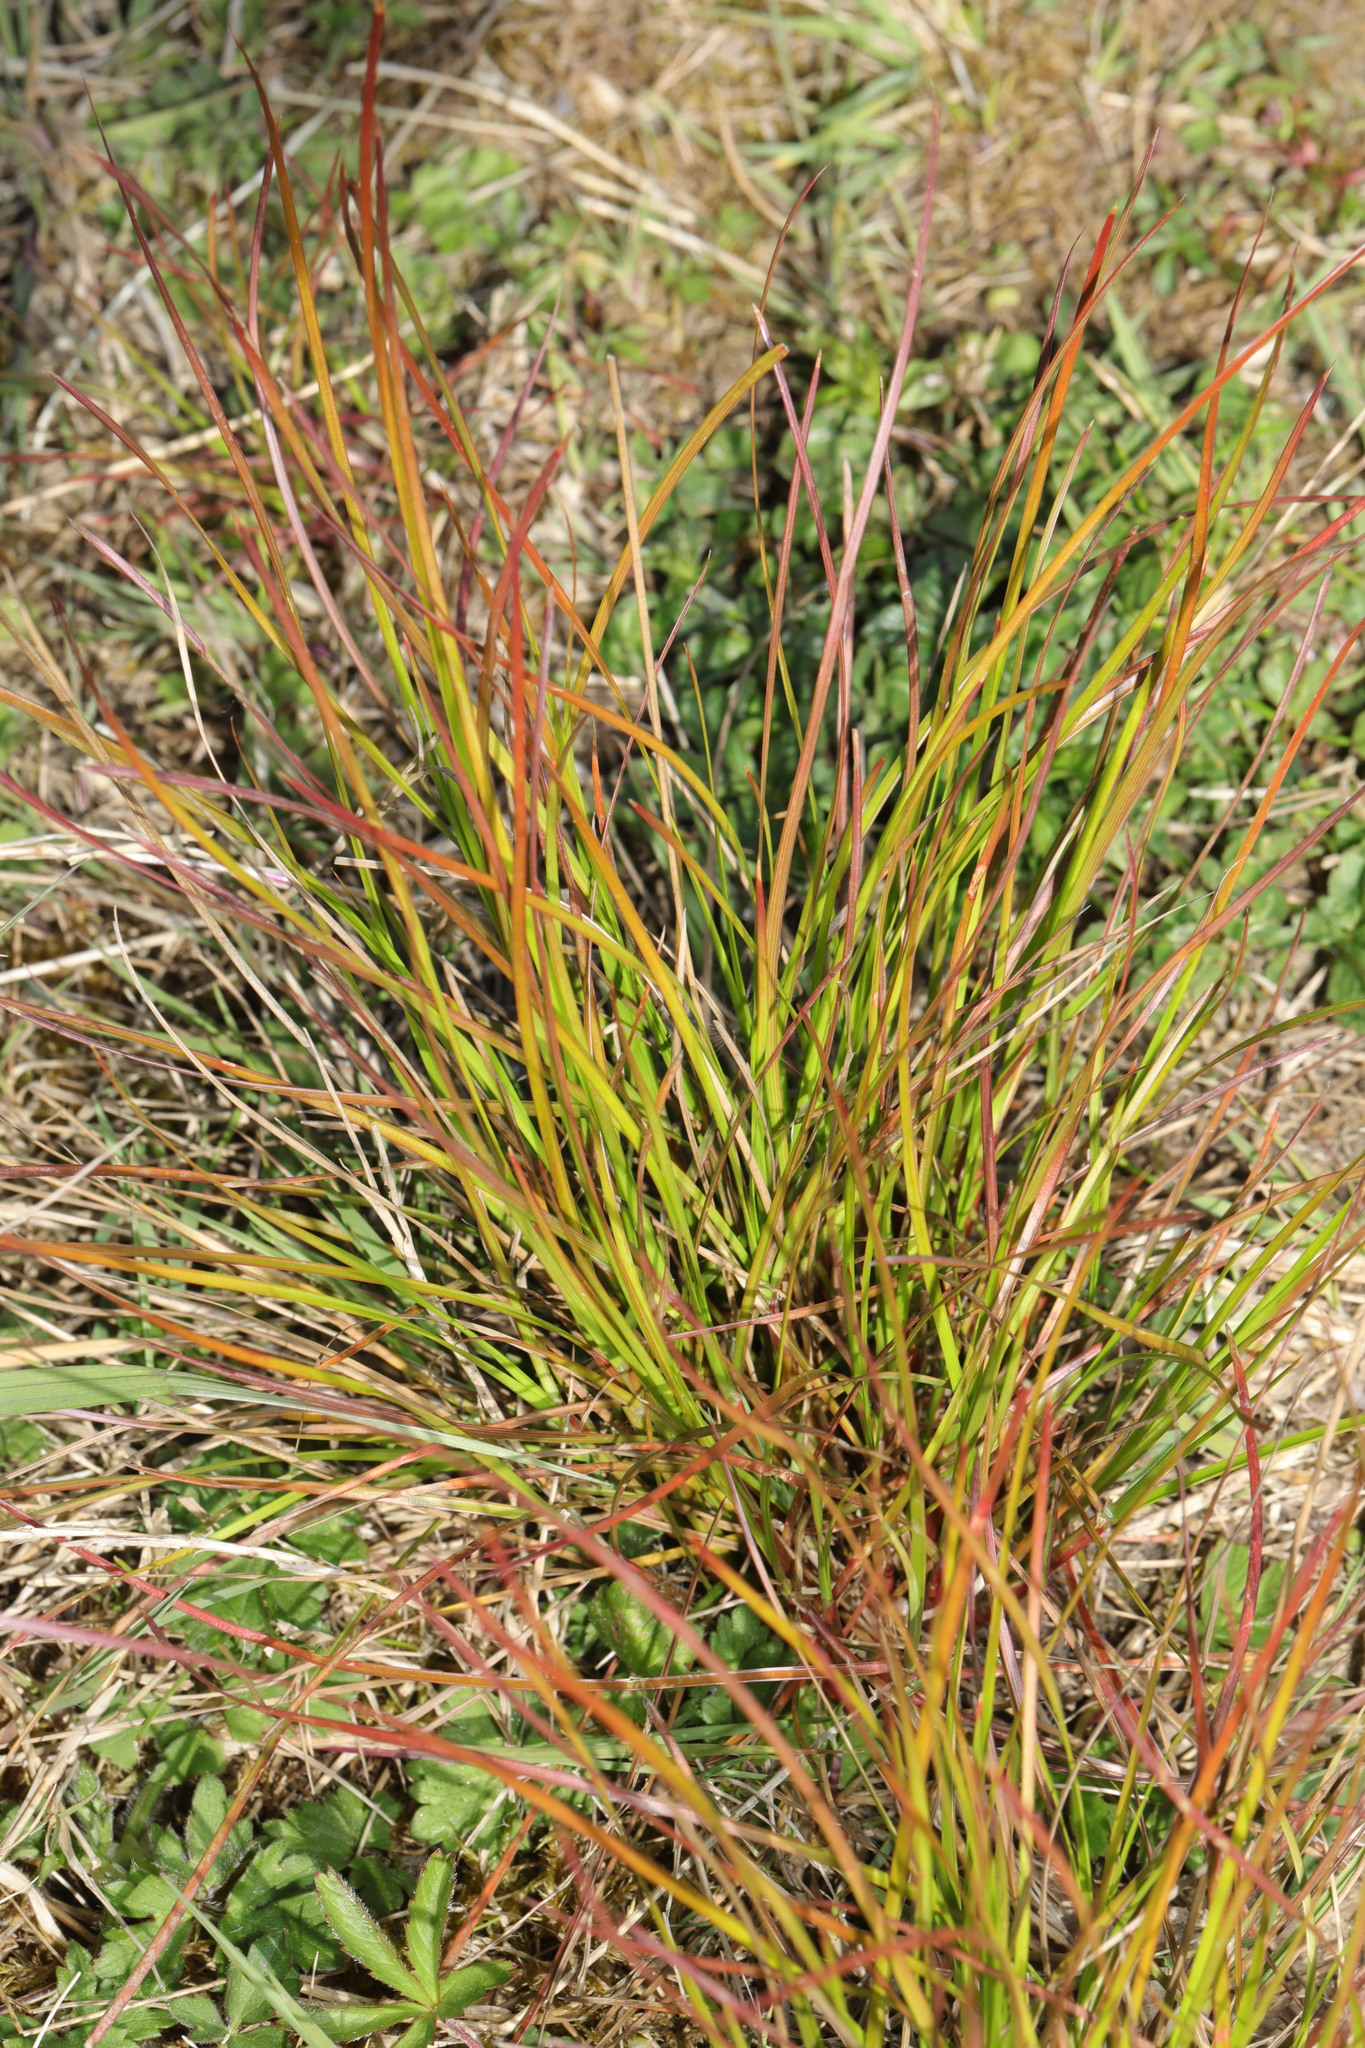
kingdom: Plantae
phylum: Tracheophyta
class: Liliopsida
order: Poales
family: Juncaceae
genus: Juncus
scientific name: Juncus tenuis
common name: Slender rush
